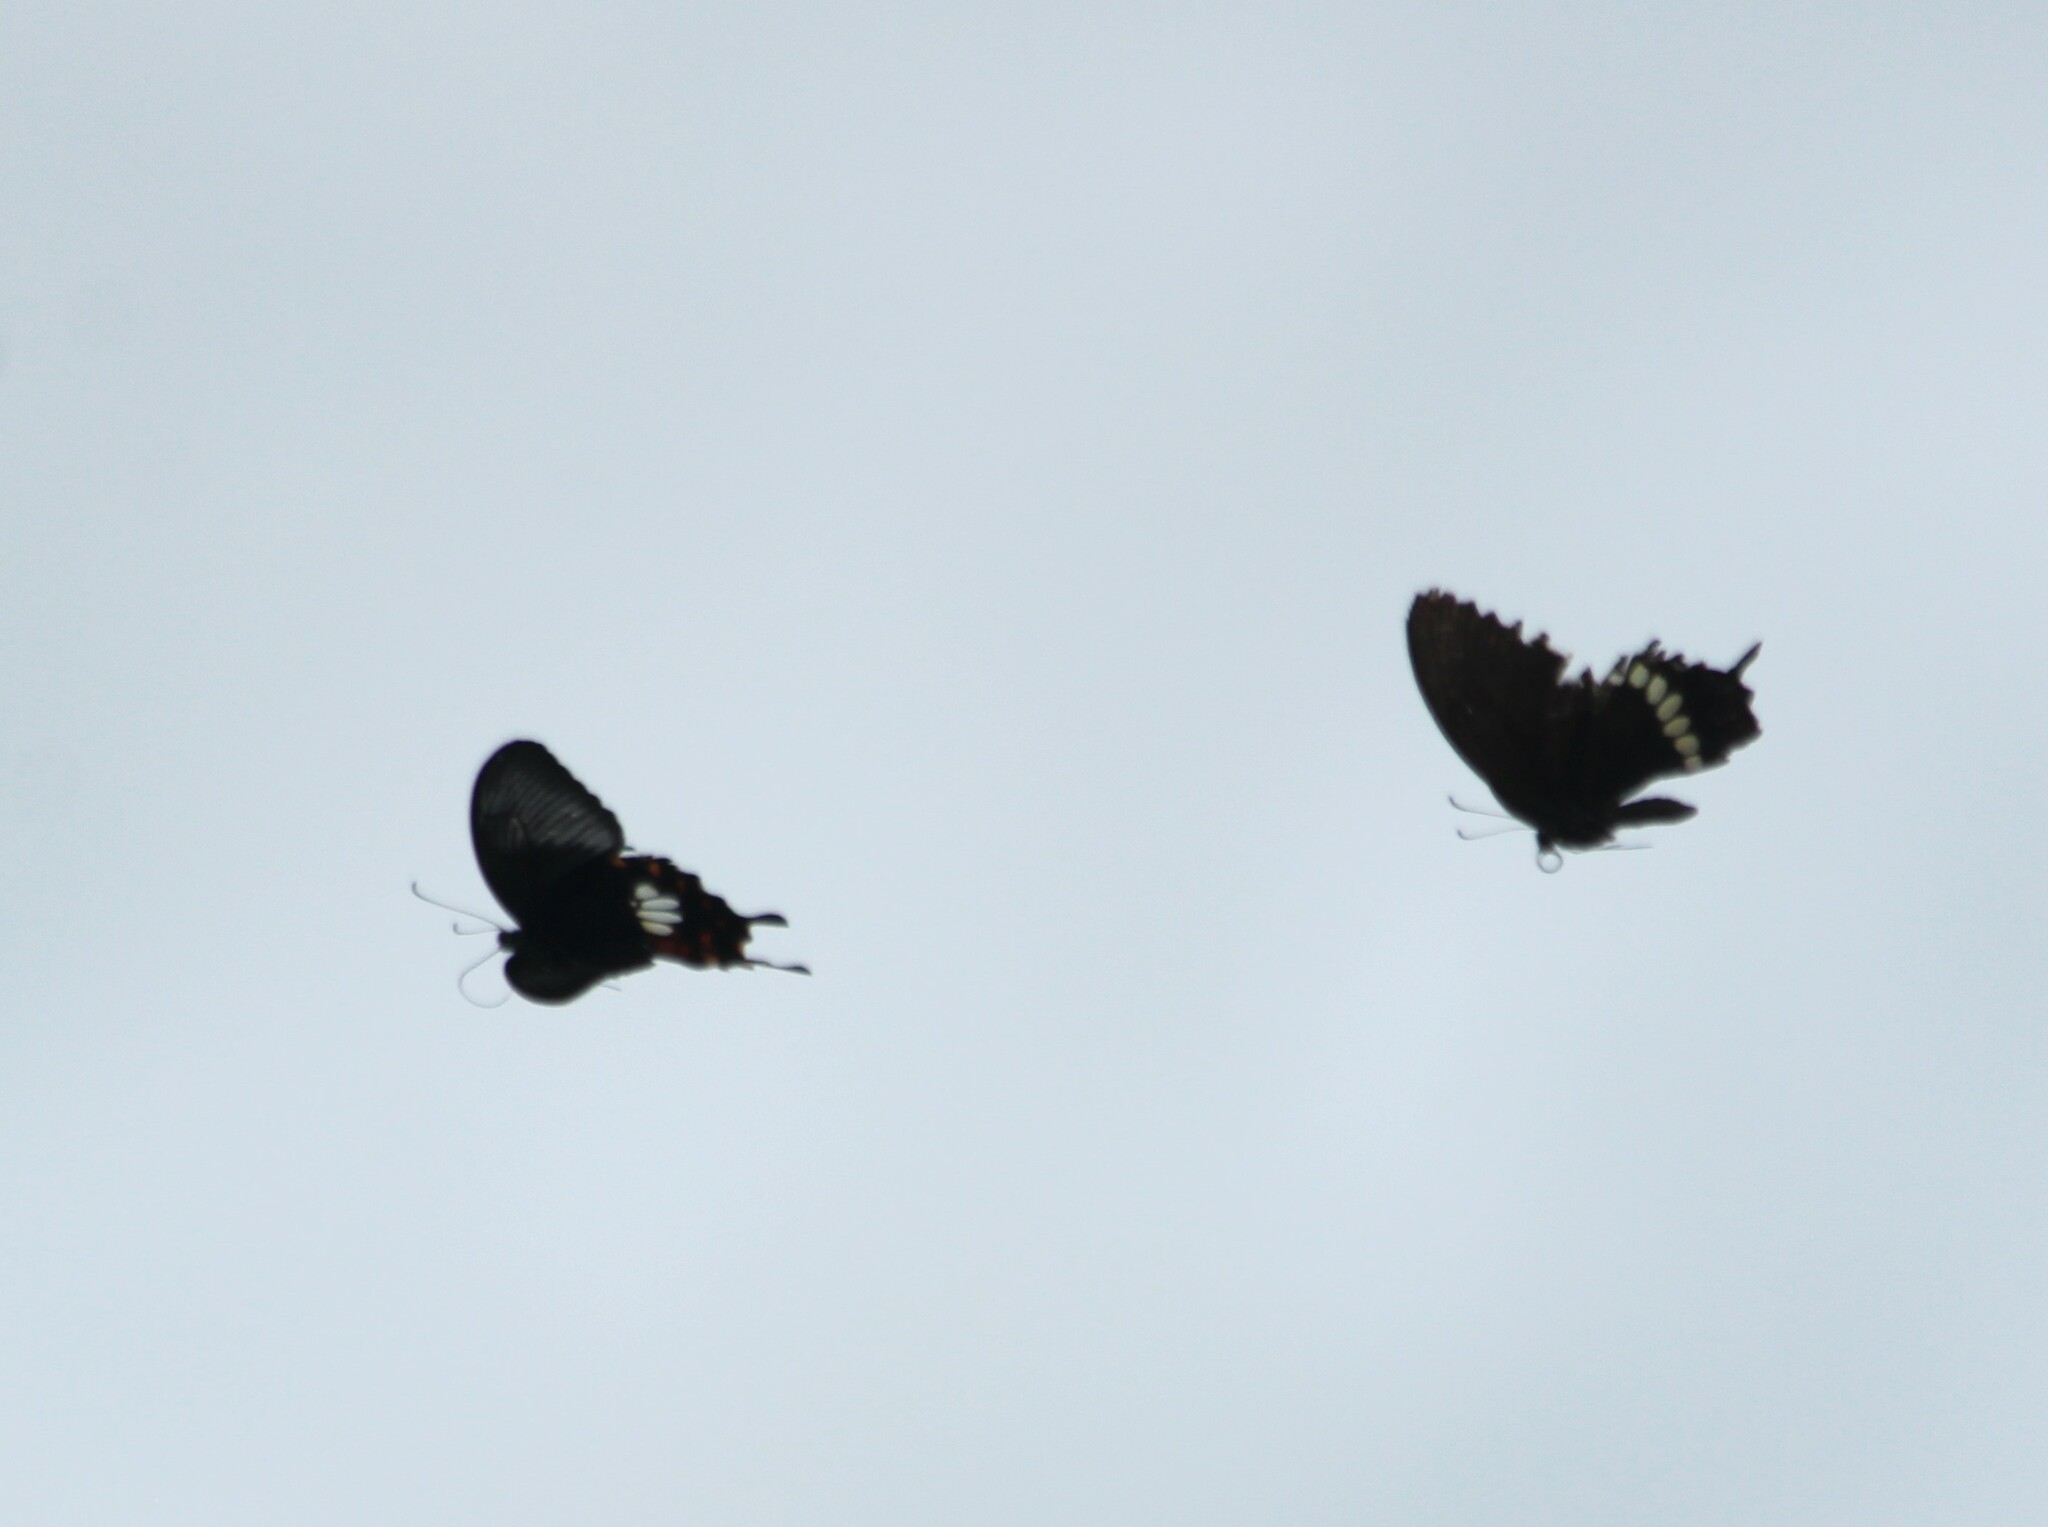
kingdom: Animalia
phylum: Arthropoda
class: Insecta
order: Lepidoptera
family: Papilionidae
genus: Papilio
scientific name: Papilio polytes
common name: Common mormon
